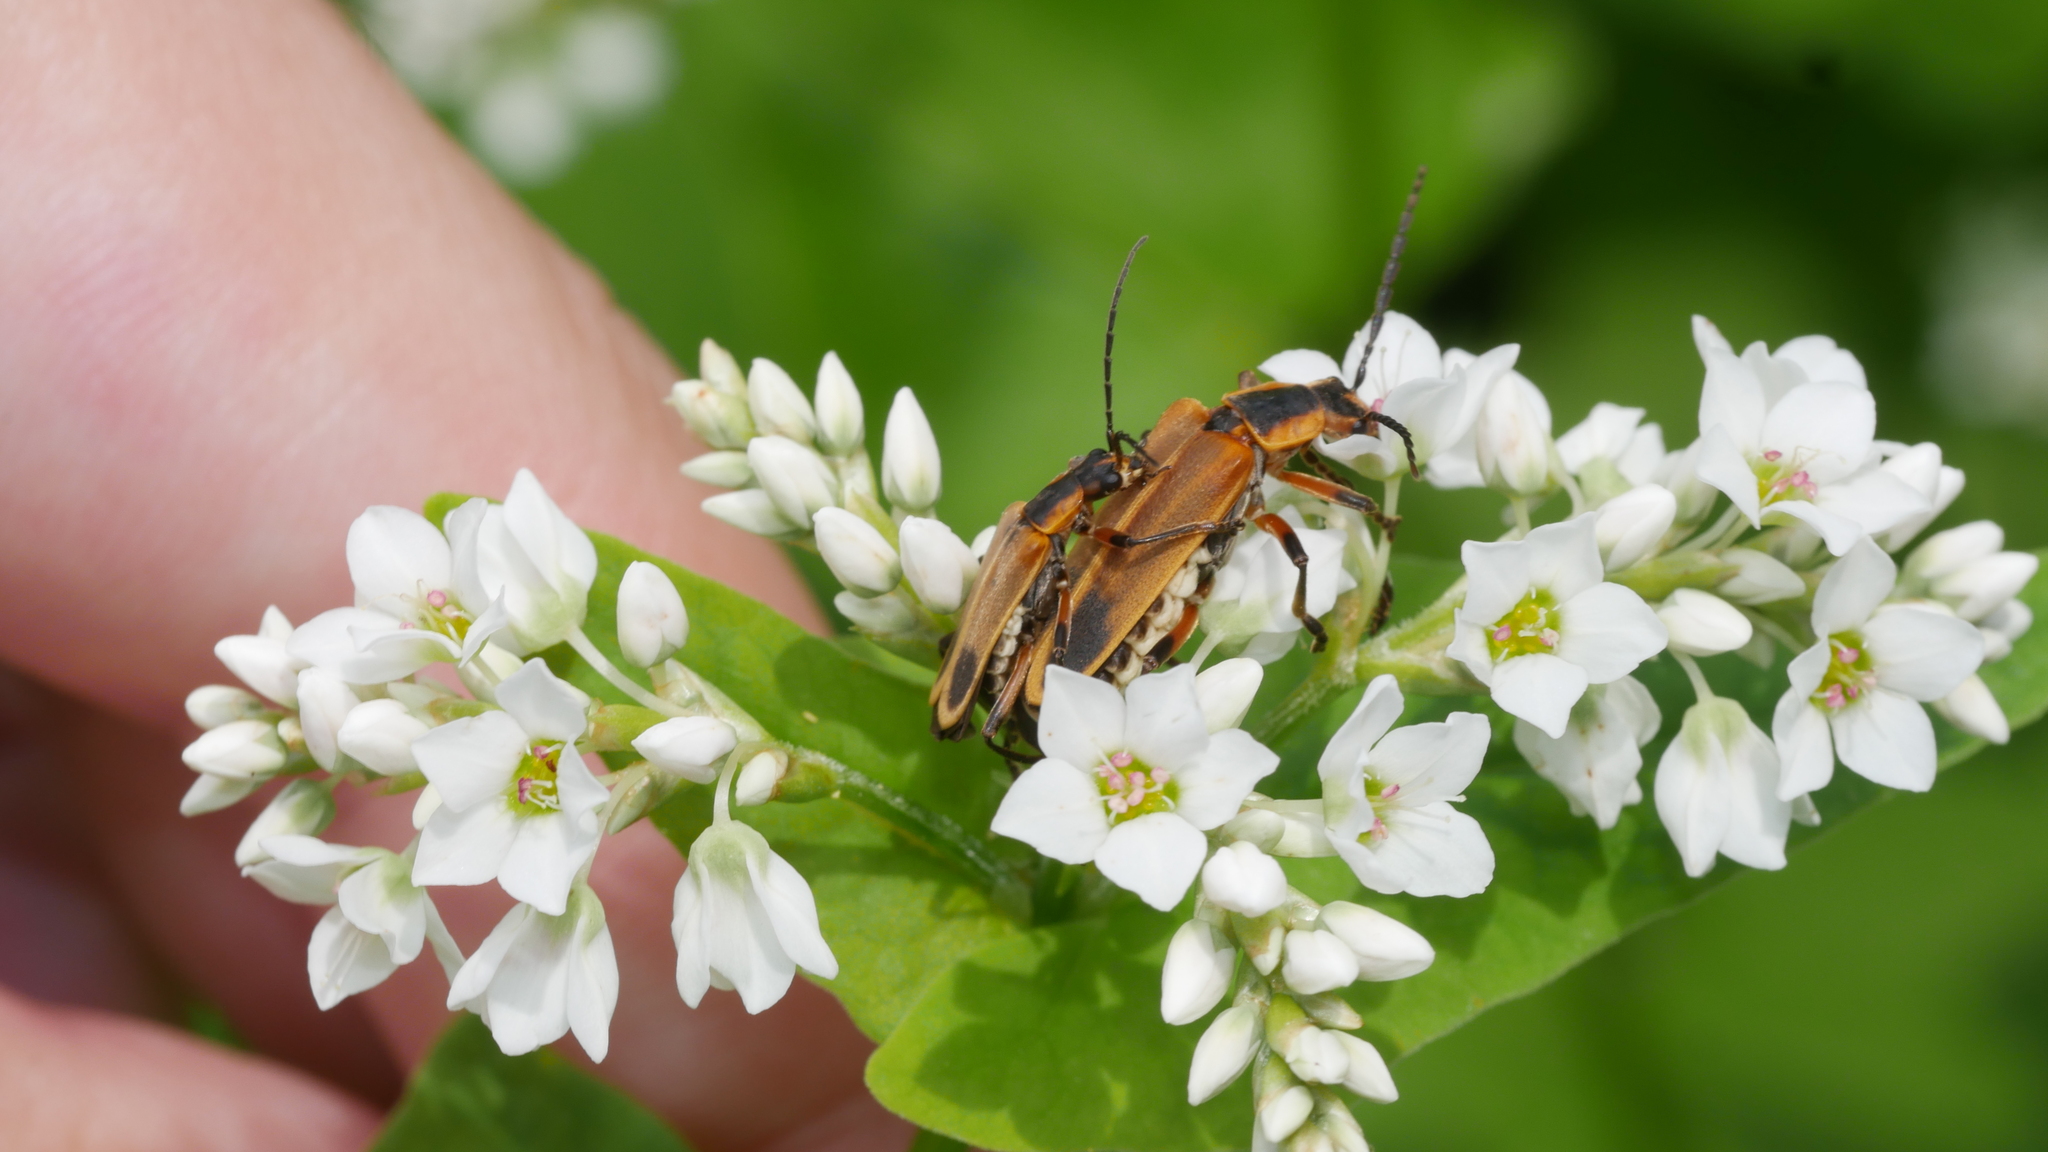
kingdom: Animalia
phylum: Arthropoda
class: Insecta
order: Coleoptera
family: Cantharidae
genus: Chauliognathus
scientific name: Chauliognathus marginatus
